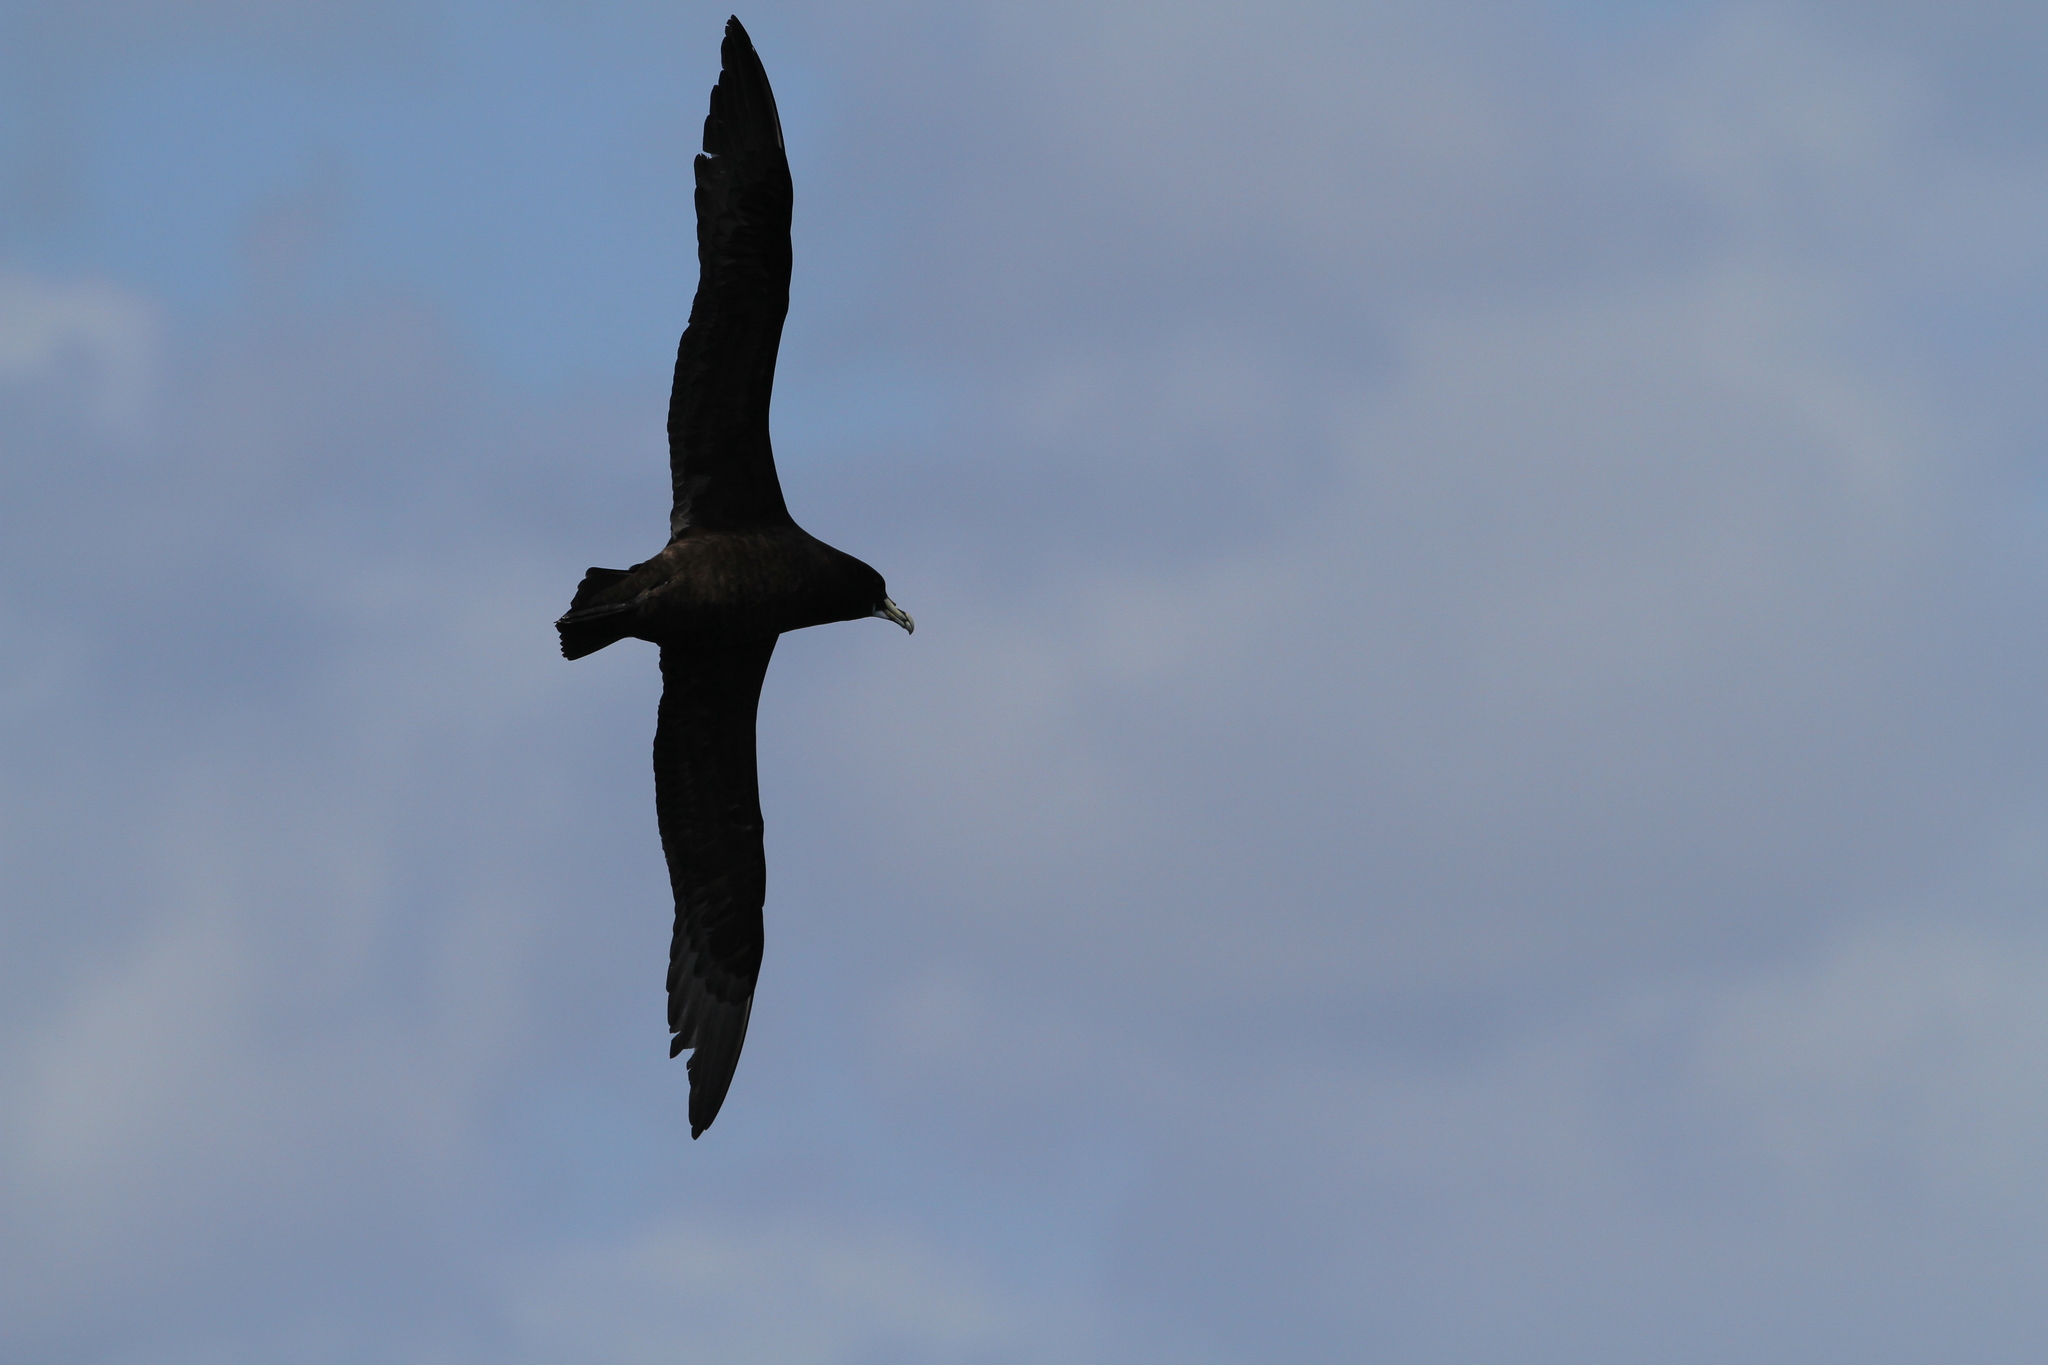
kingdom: Animalia
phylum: Chordata
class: Aves
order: Procellariiformes
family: Procellariidae
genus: Procellaria
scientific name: Procellaria aequinoctialis
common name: White-chinned petrel
